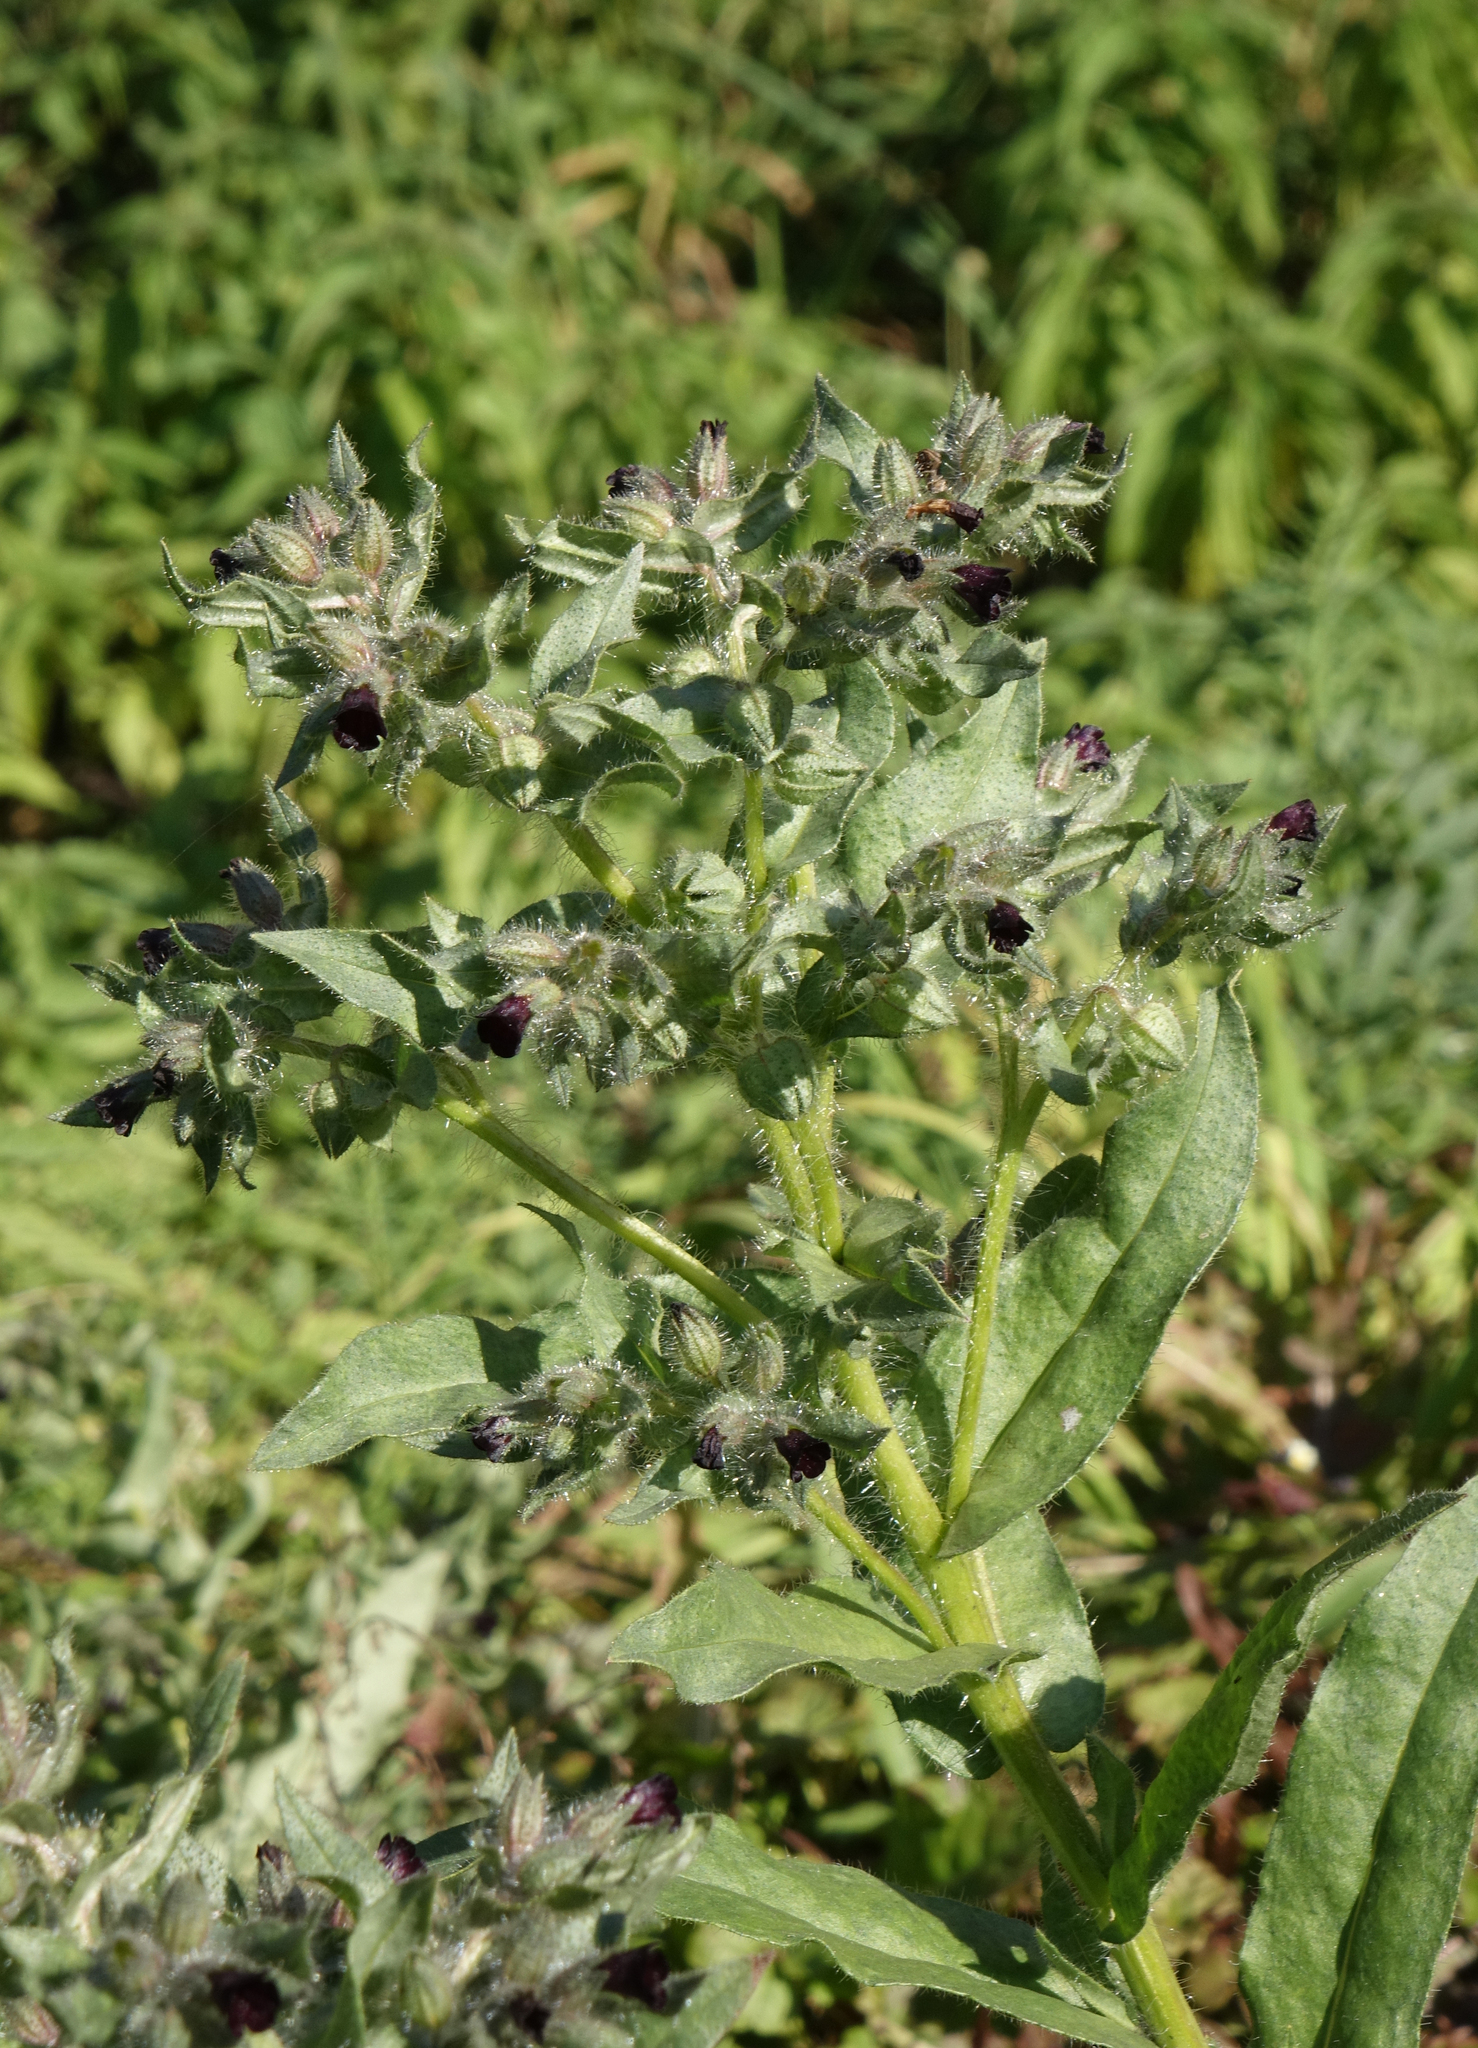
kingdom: Plantae
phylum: Tracheophyta
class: Magnoliopsida
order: Boraginales
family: Boraginaceae
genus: Nonea
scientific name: Nonea pulla
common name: Brown nonea
